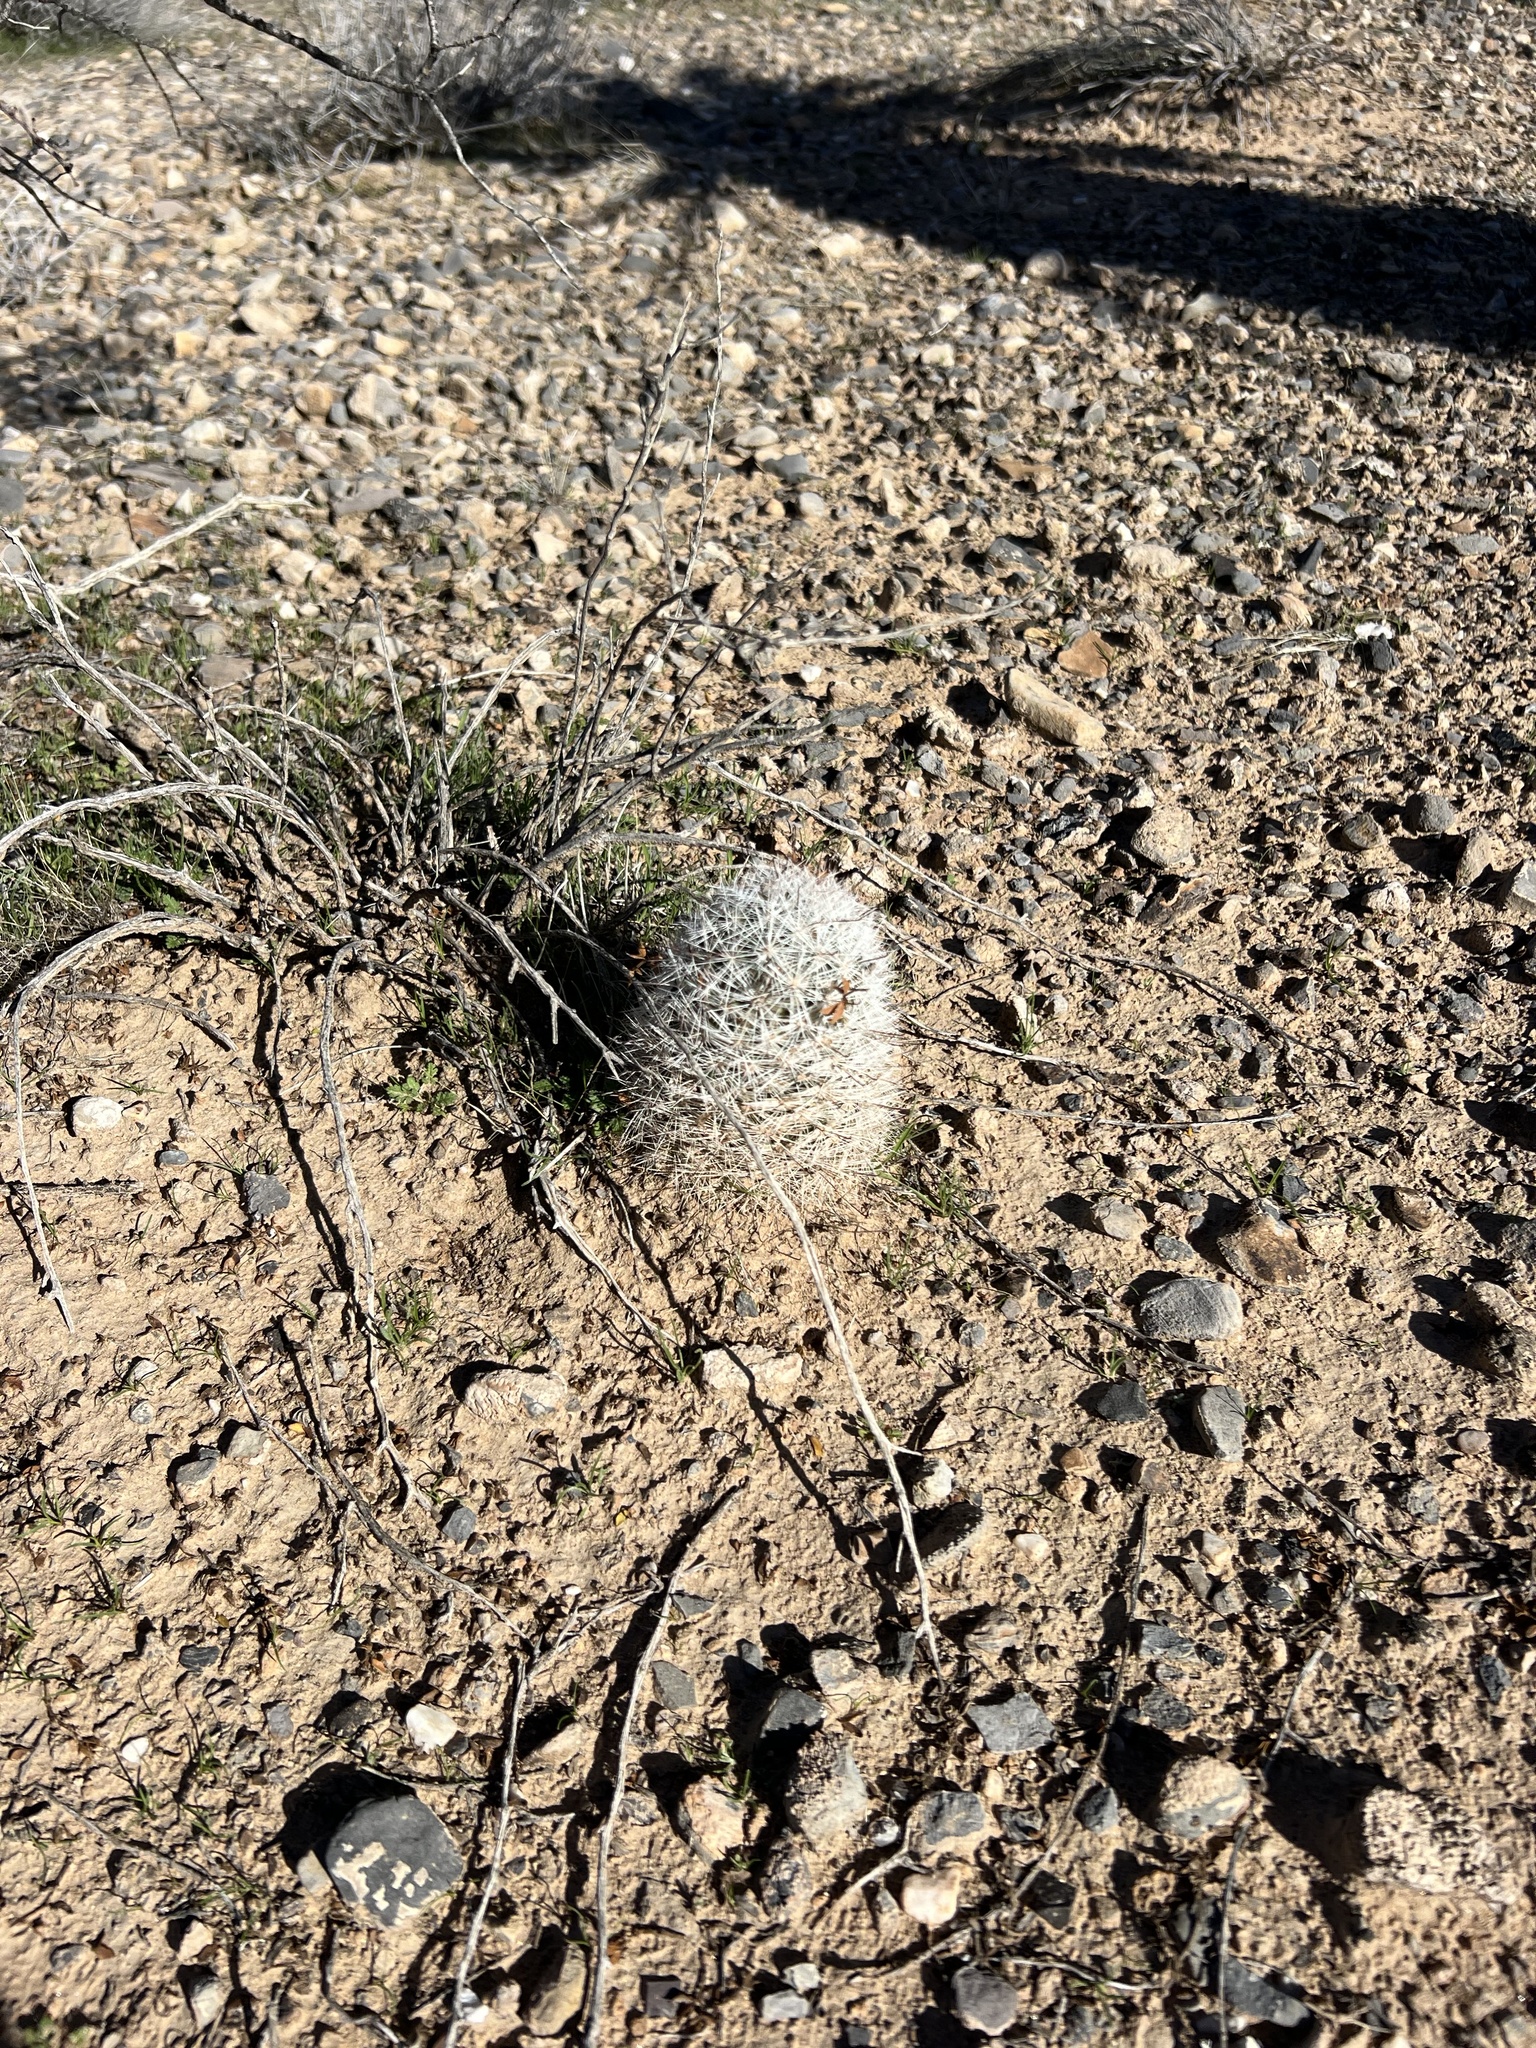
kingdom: Plantae
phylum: Tracheophyta
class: Magnoliopsida
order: Caryophyllales
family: Cactaceae
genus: Cochemiea
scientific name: Cochemiea tetrancistra
